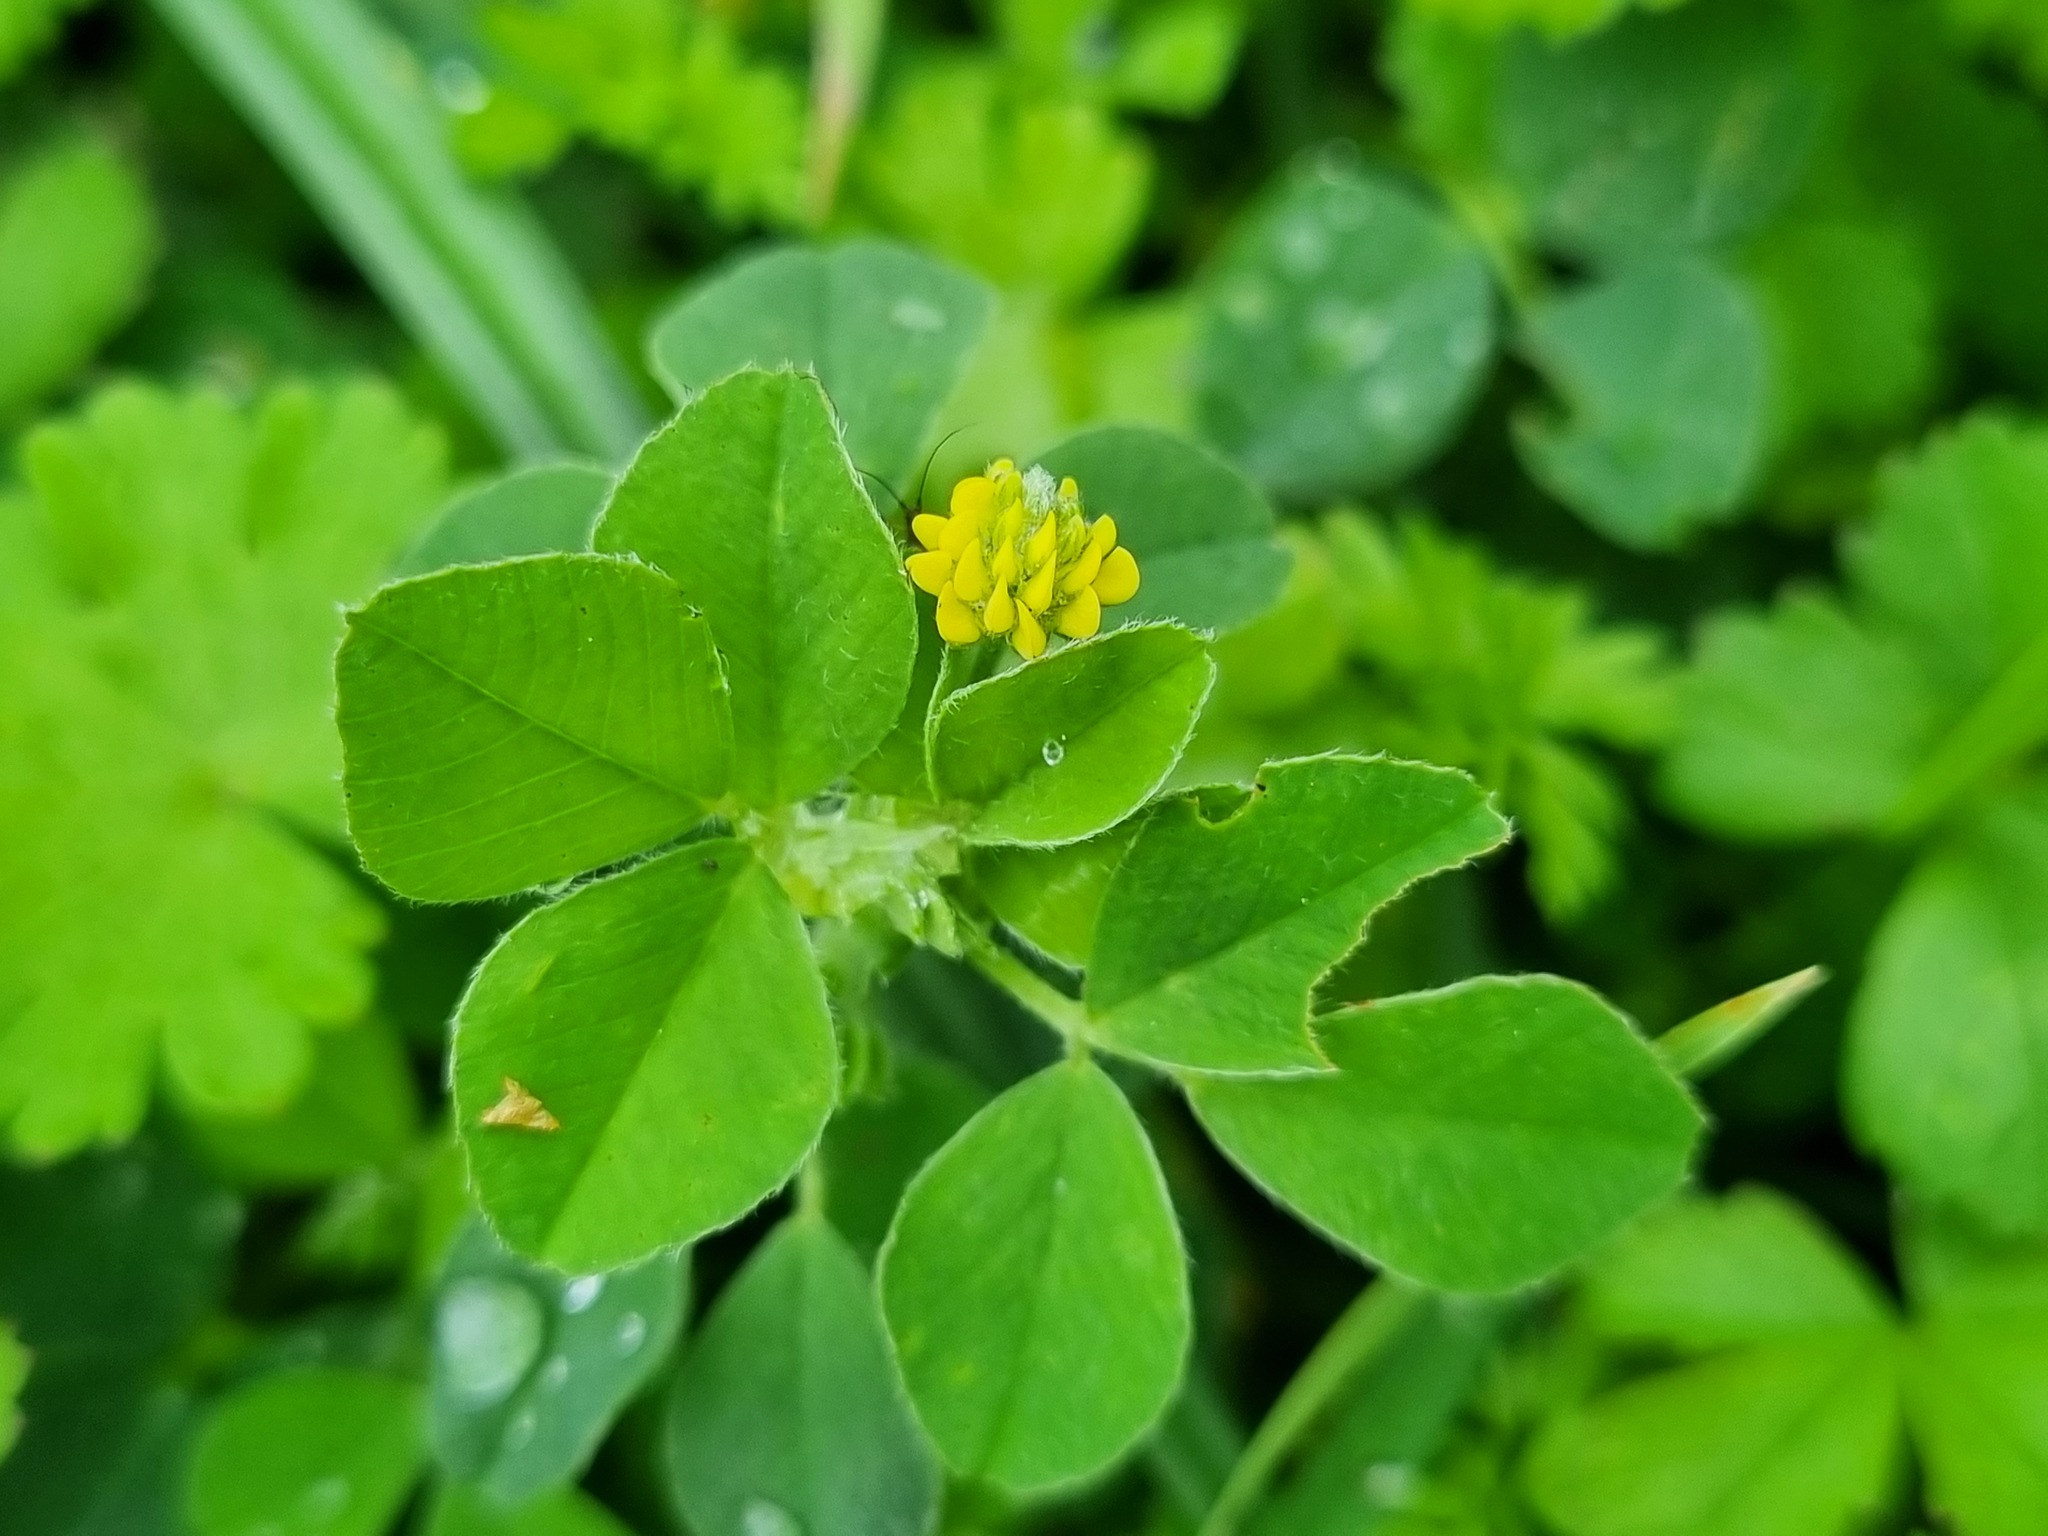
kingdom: Plantae
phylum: Tracheophyta
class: Magnoliopsida
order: Fabales
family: Fabaceae
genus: Medicago
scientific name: Medicago lupulina
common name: Black medick
